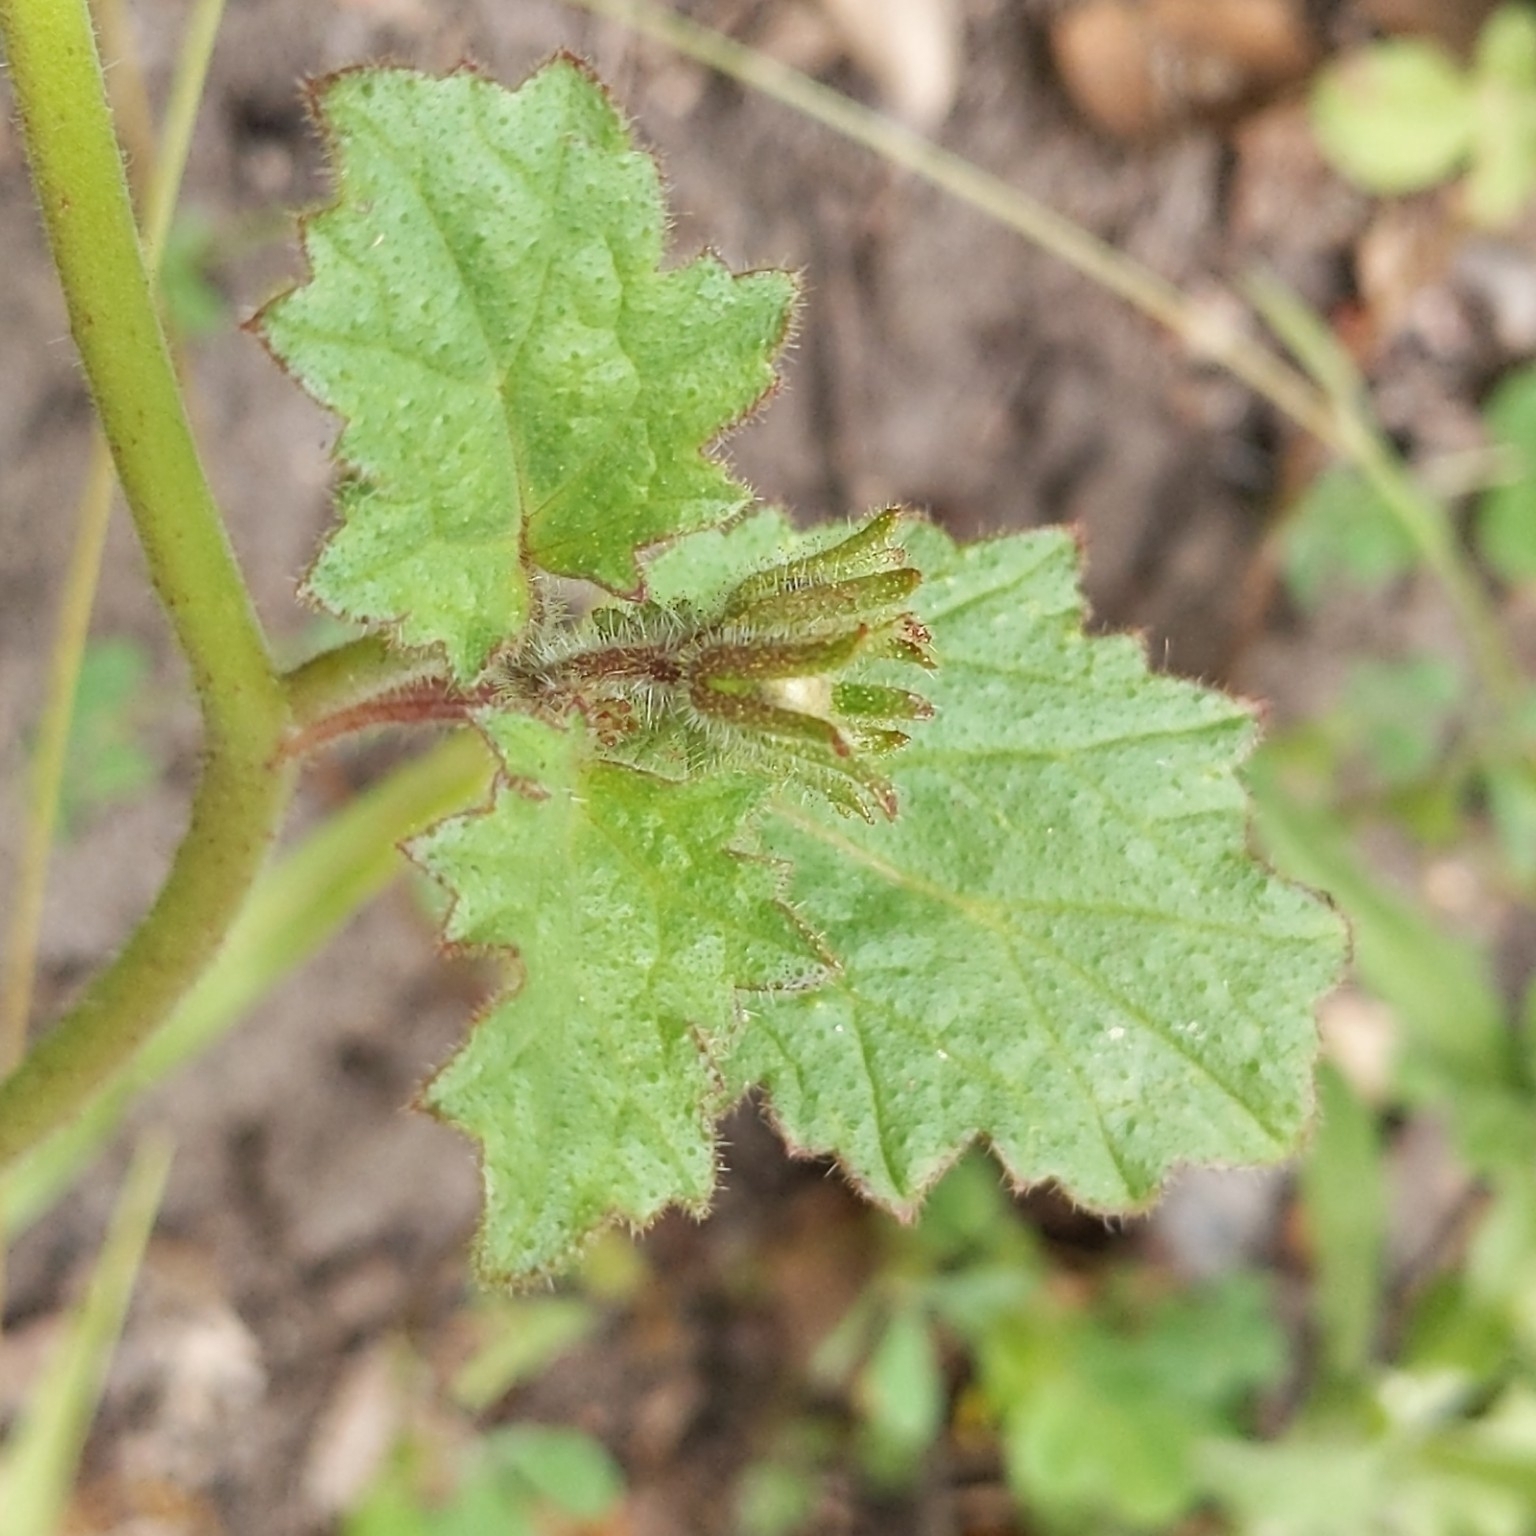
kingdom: Plantae
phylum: Tracheophyta
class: Magnoliopsida
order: Boraginales
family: Hydrophyllaceae
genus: Phacelia
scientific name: Phacelia parryi
